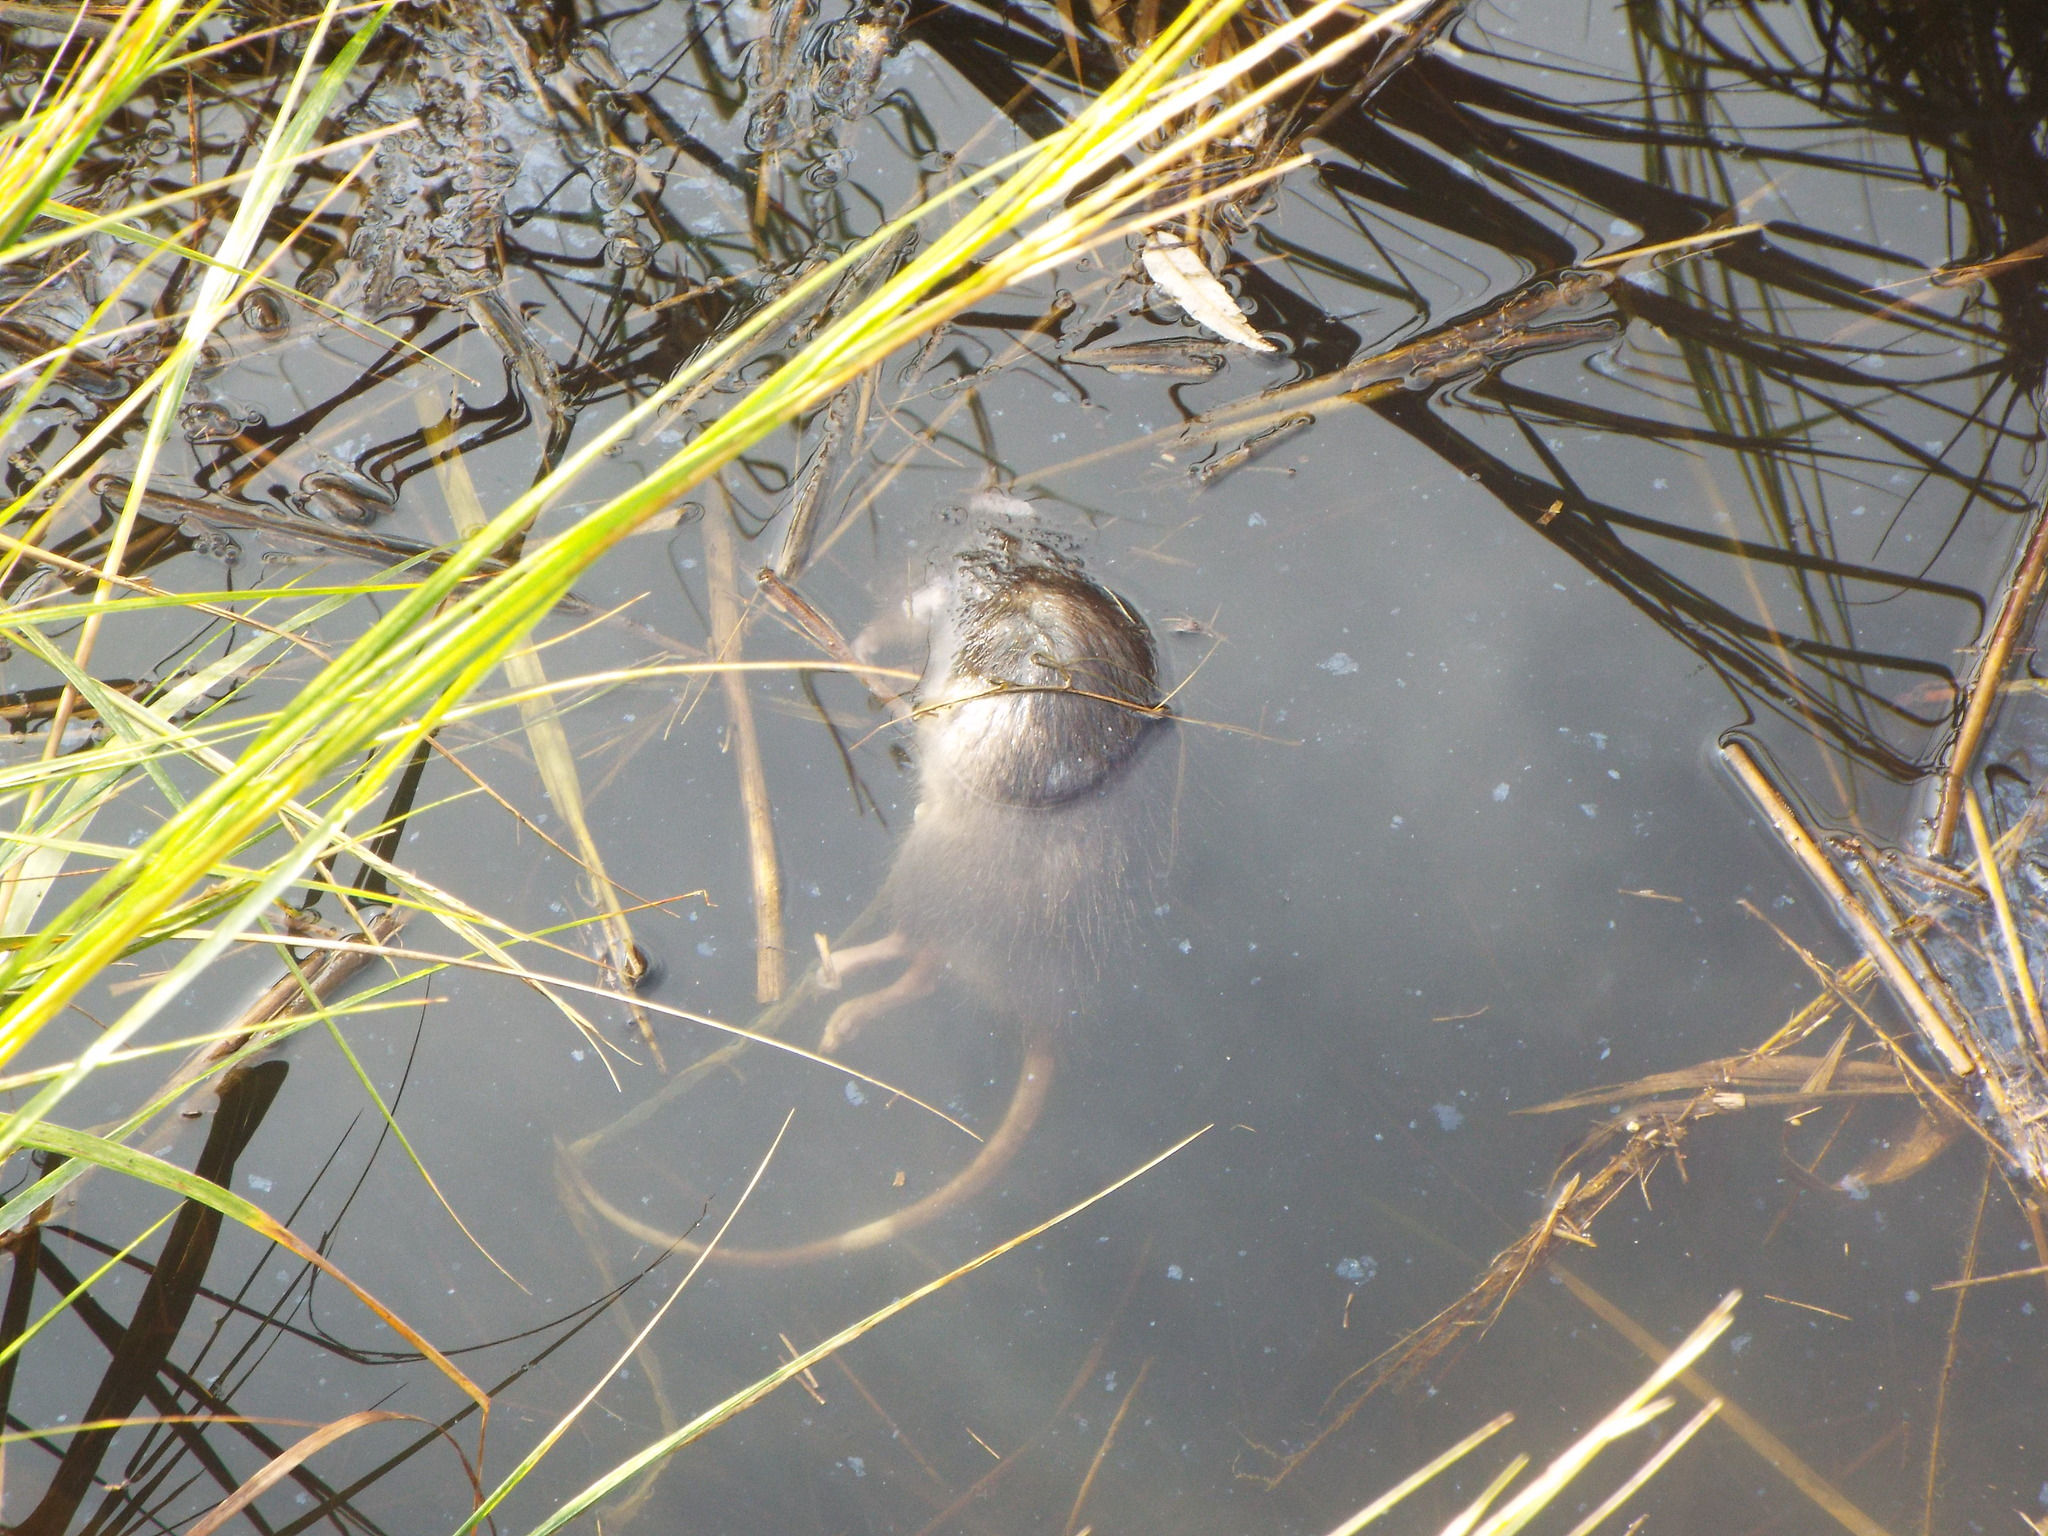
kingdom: Animalia
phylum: Chordata
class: Mammalia
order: Rodentia
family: Muridae
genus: Rattus
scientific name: Rattus norvegicus
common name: Brown rat
